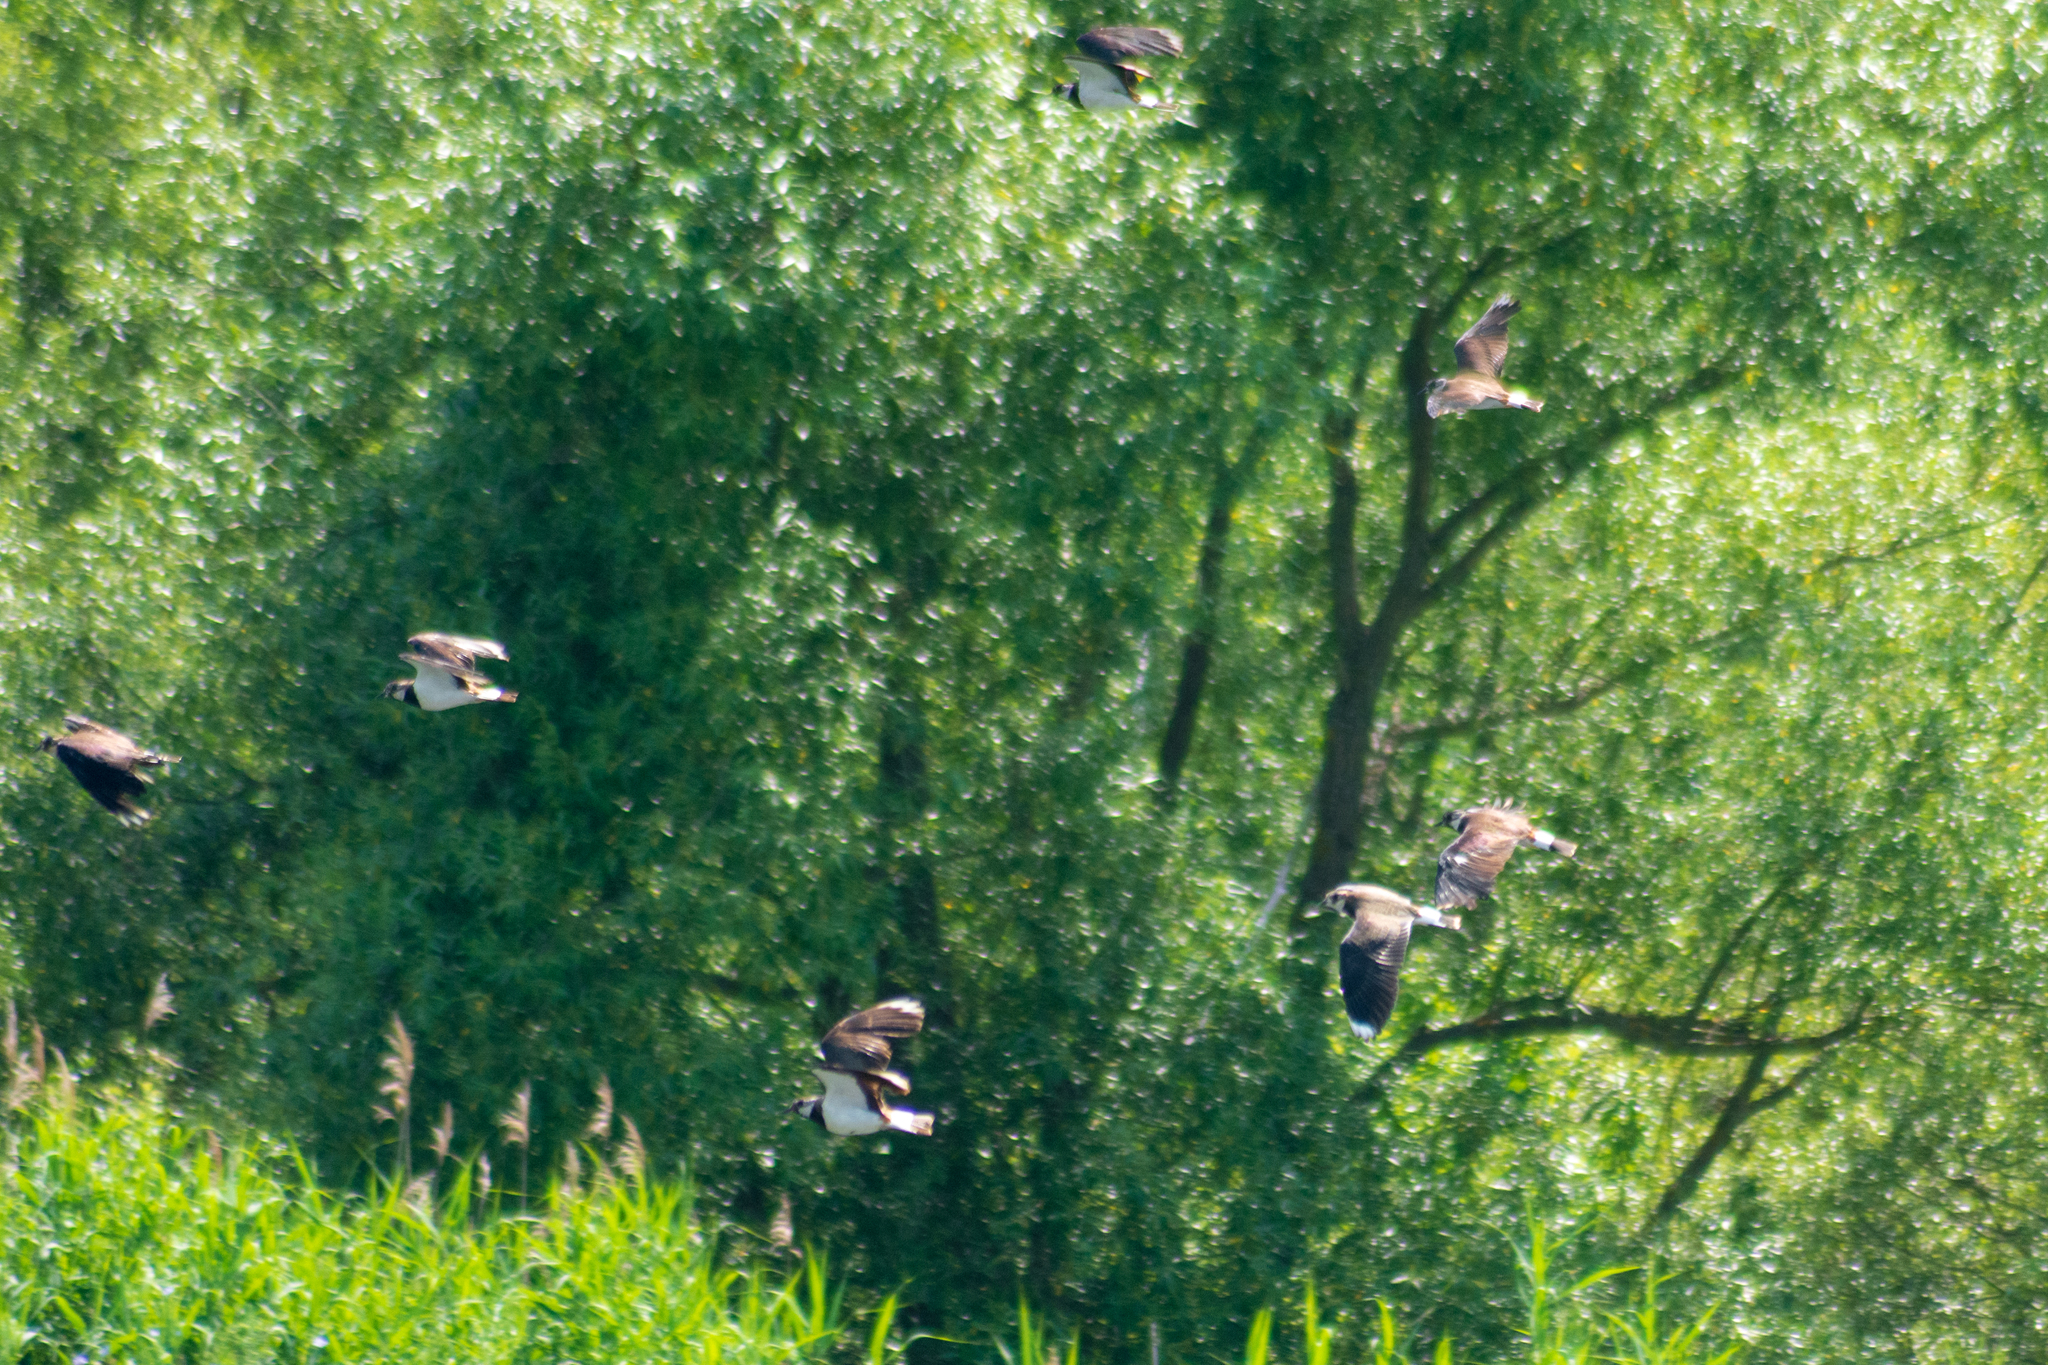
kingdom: Animalia
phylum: Chordata
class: Aves
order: Charadriiformes
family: Charadriidae
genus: Vanellus
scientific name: Vanellus vanellus
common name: Northern lapwing
